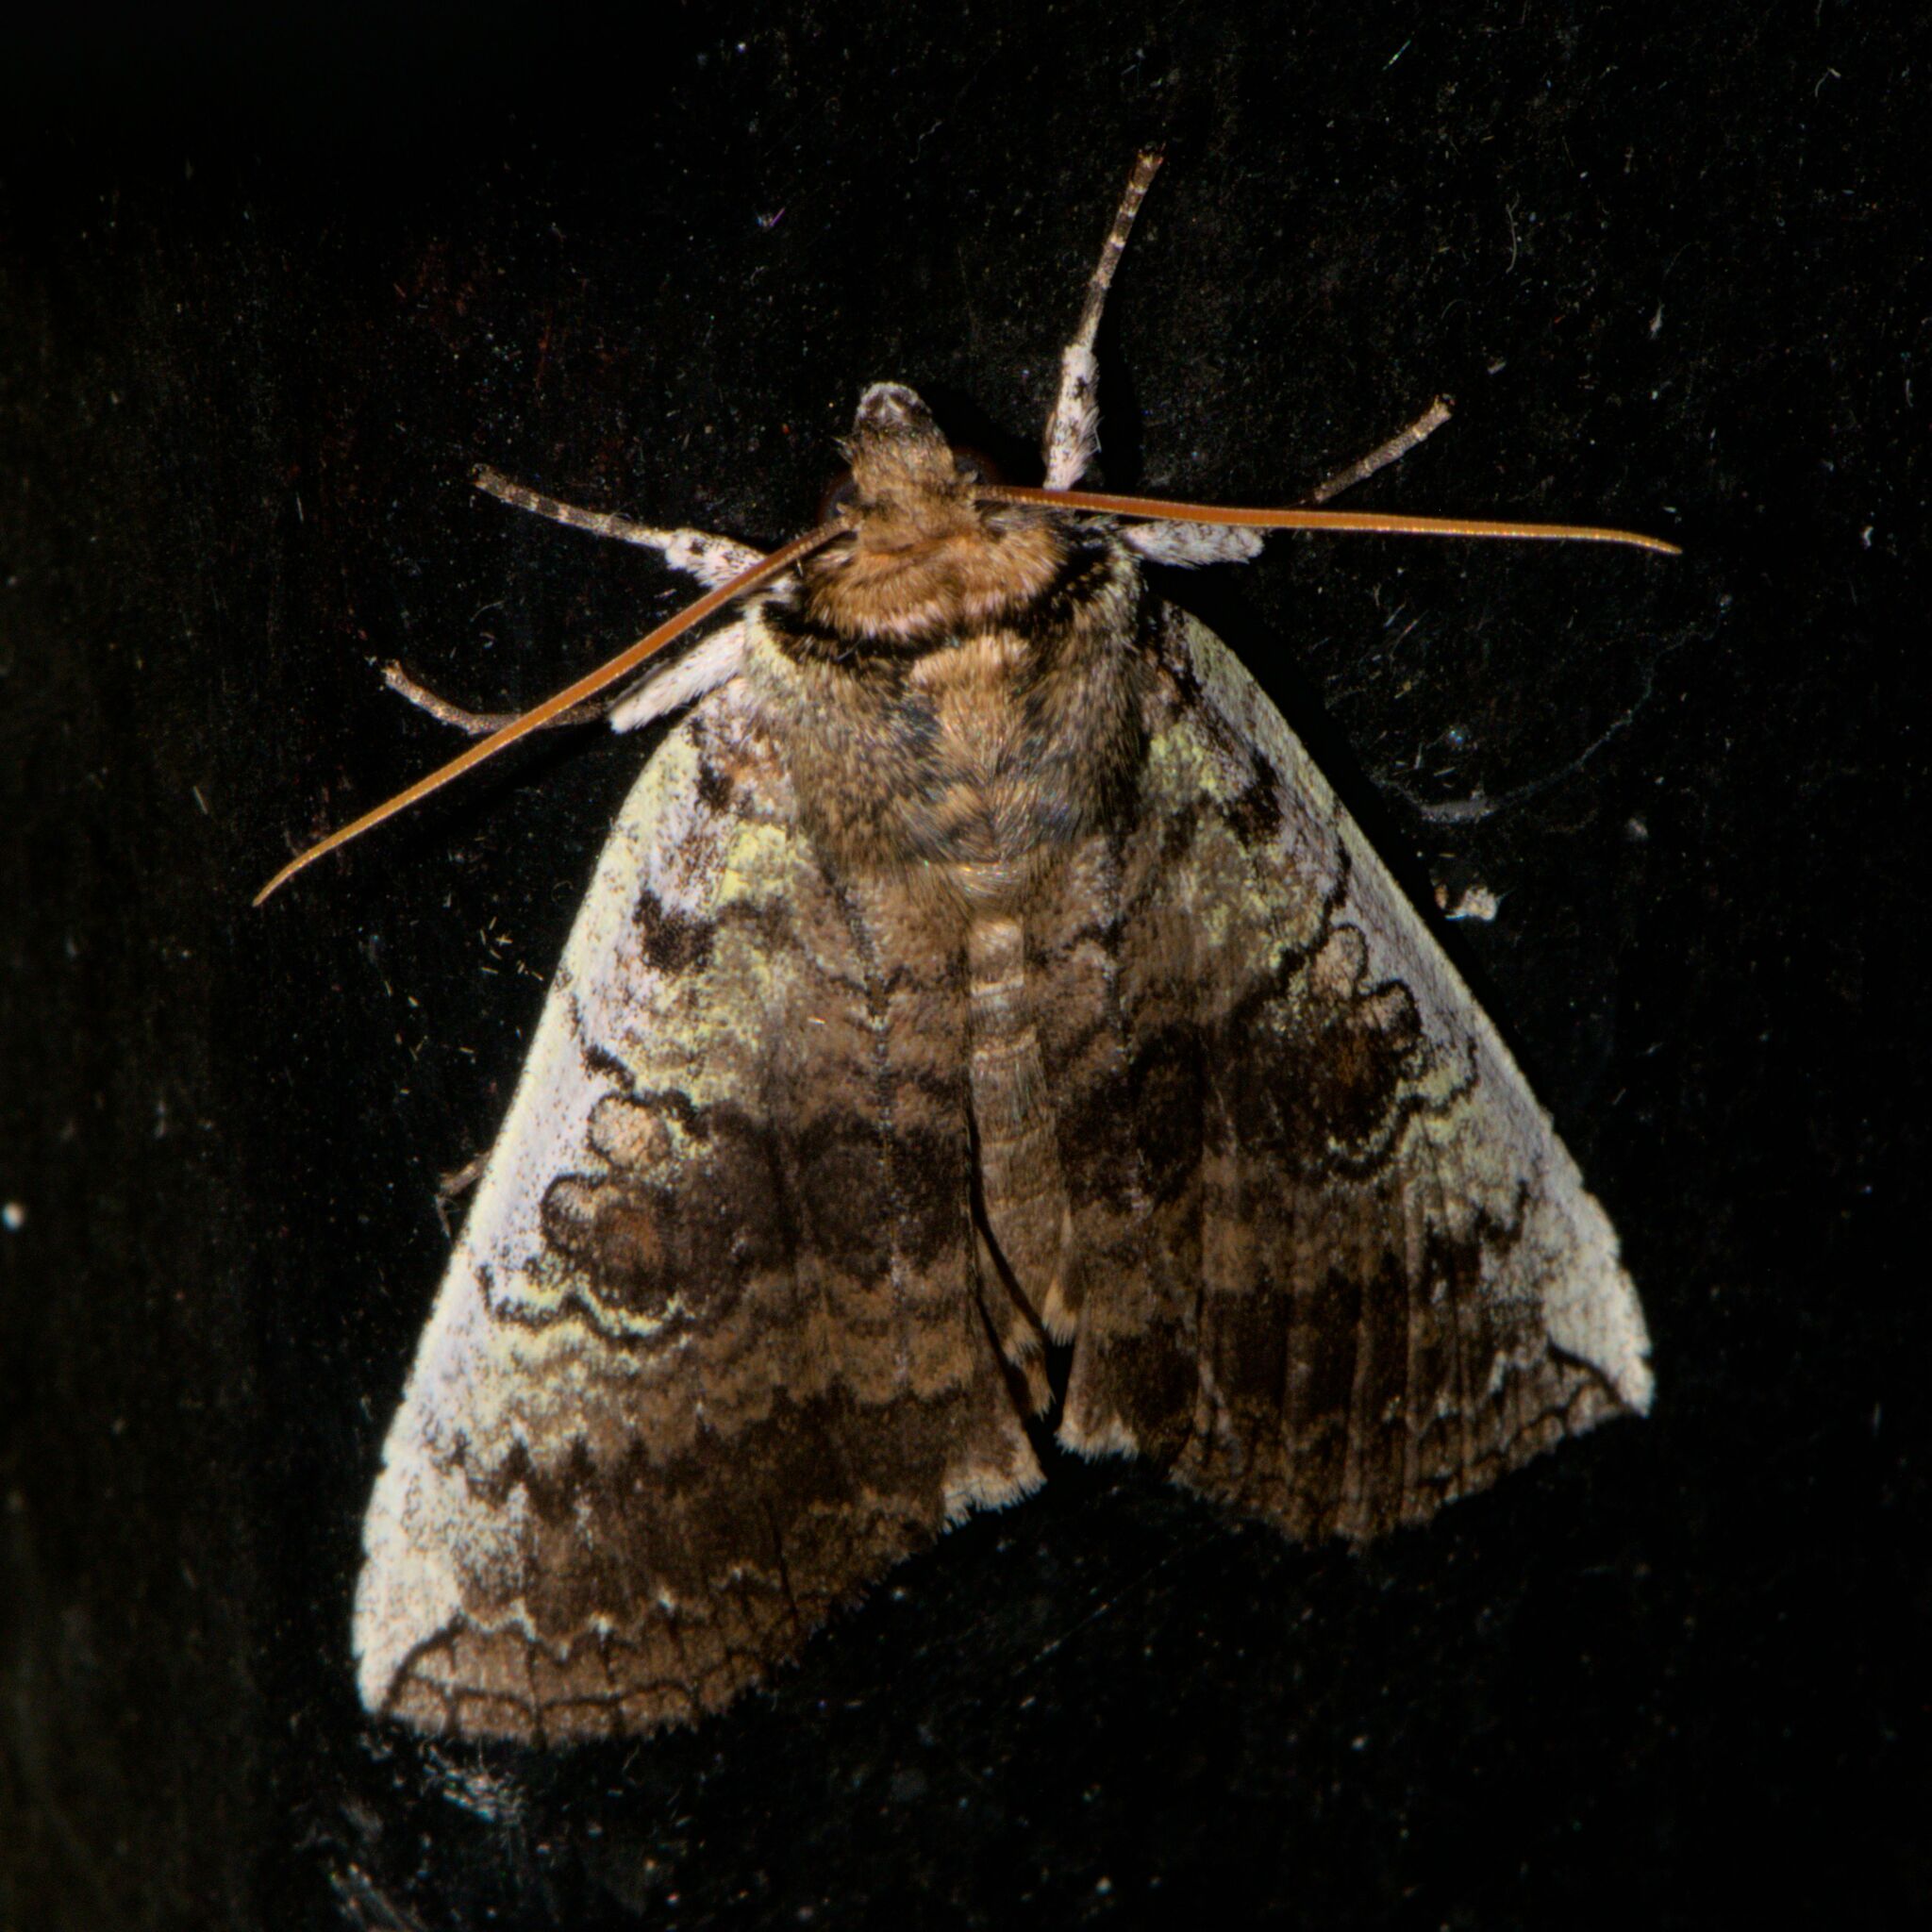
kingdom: Animalia
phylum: Arthropoda
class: Insecta
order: Lepidoptera
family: Drepanidae
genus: Tethea
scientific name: Tethea consimilis
